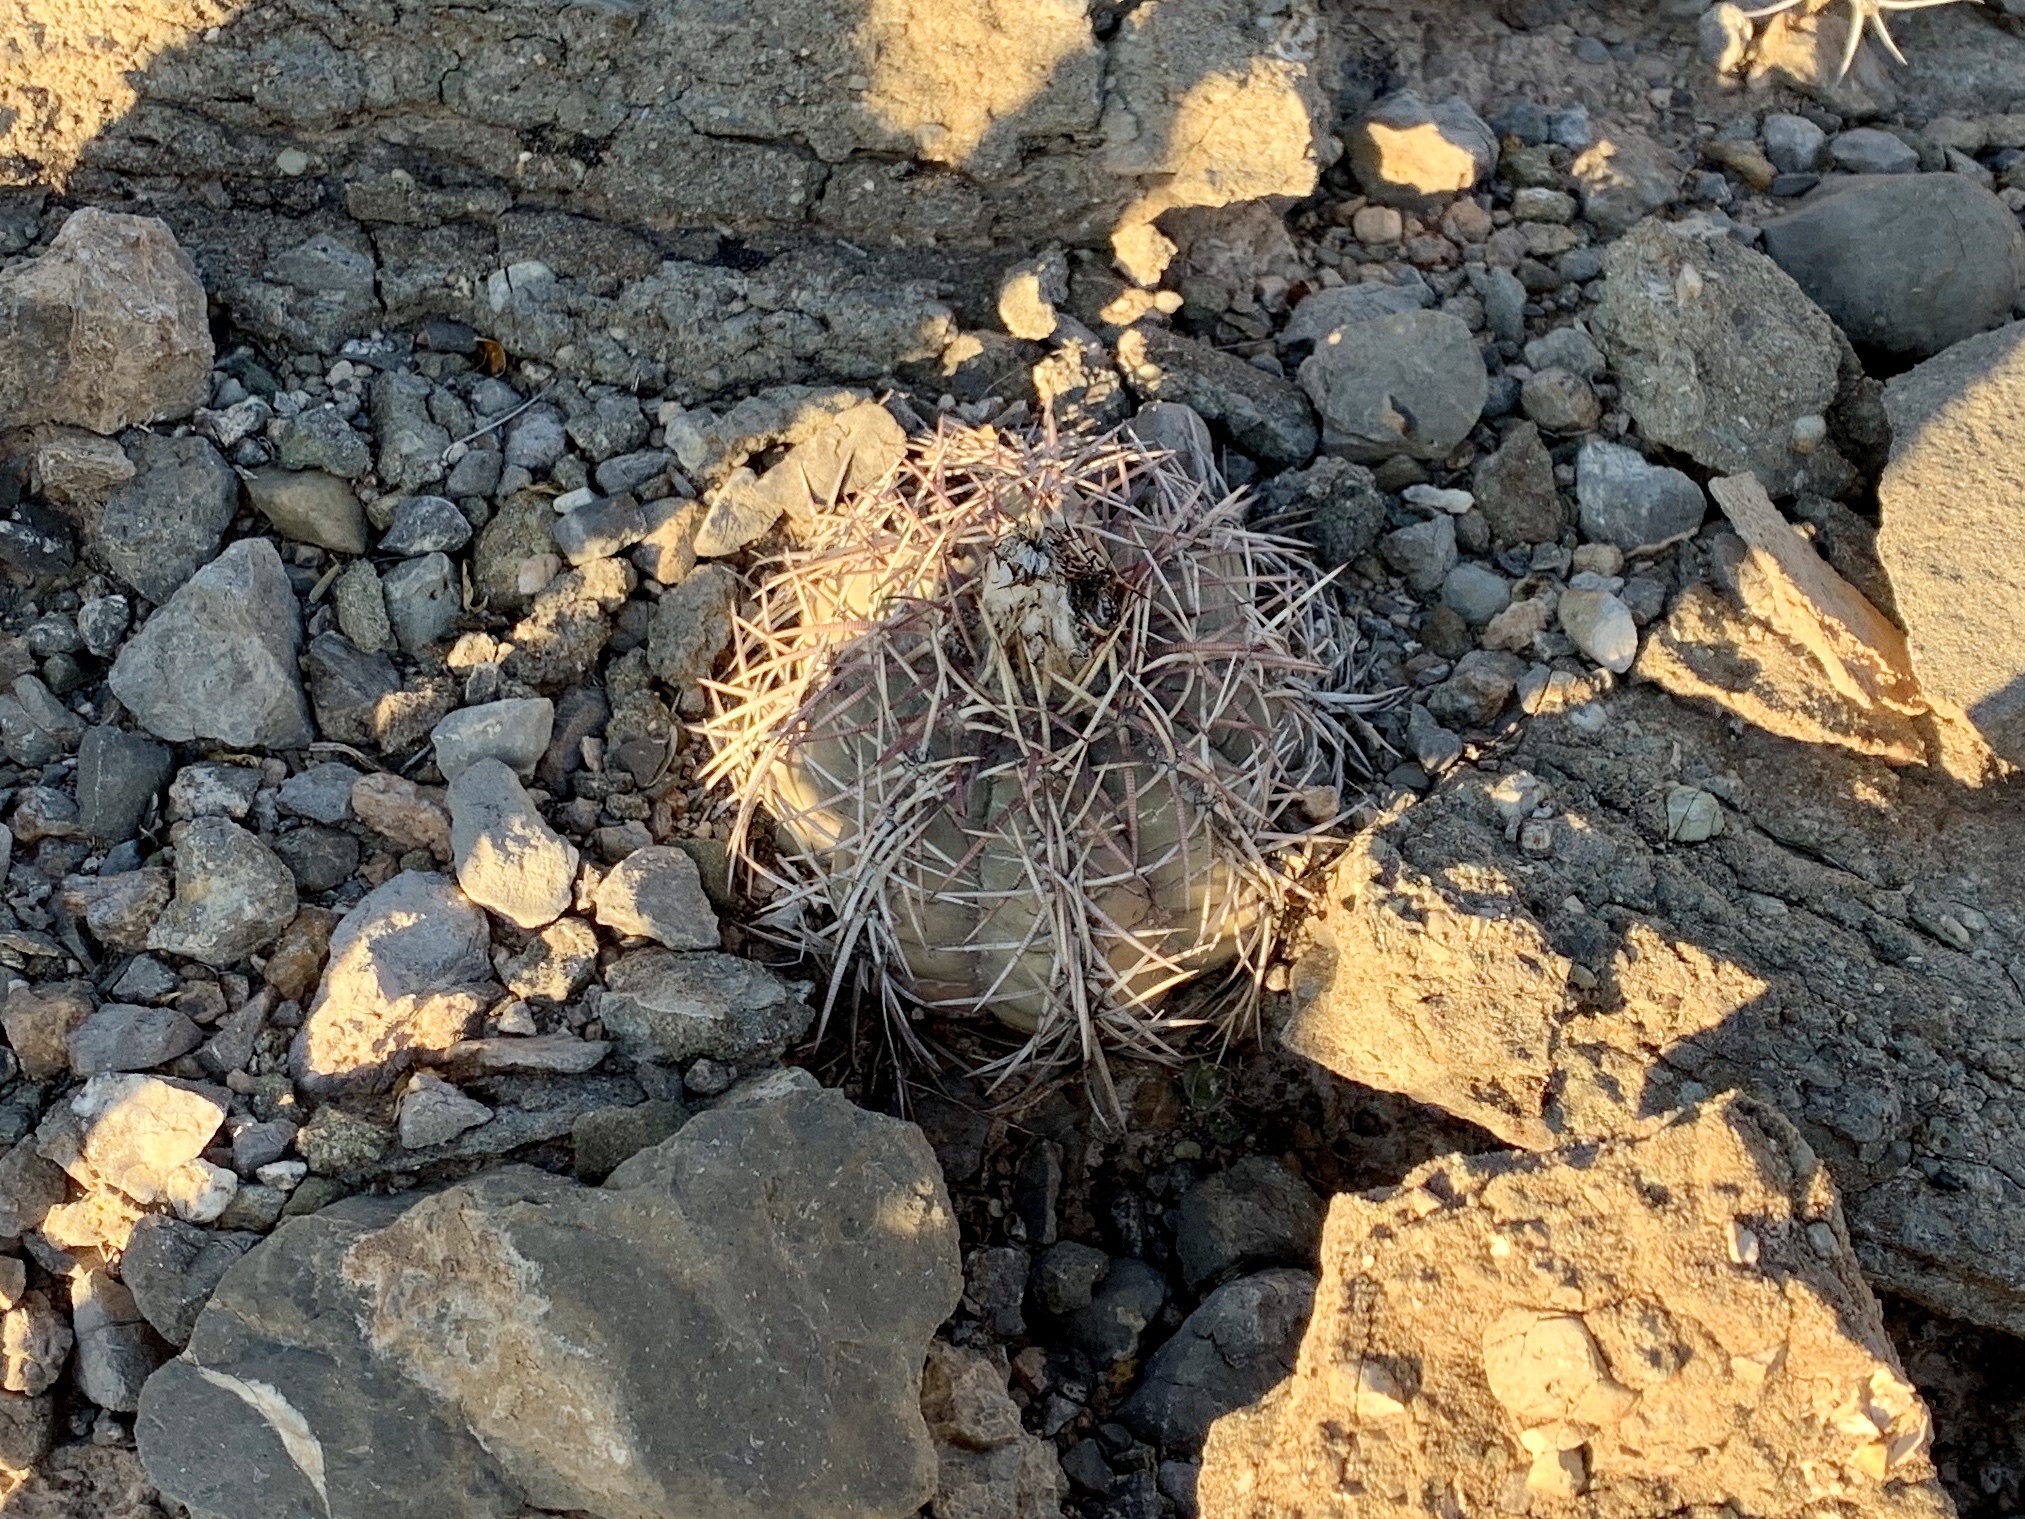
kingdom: Plantae
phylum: Tracheophyta
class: Magnoliopsida
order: Caryophyllales
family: Cactaceae
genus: Echinocactus
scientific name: Echinocactus horizonthalonius
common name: Devilshead
